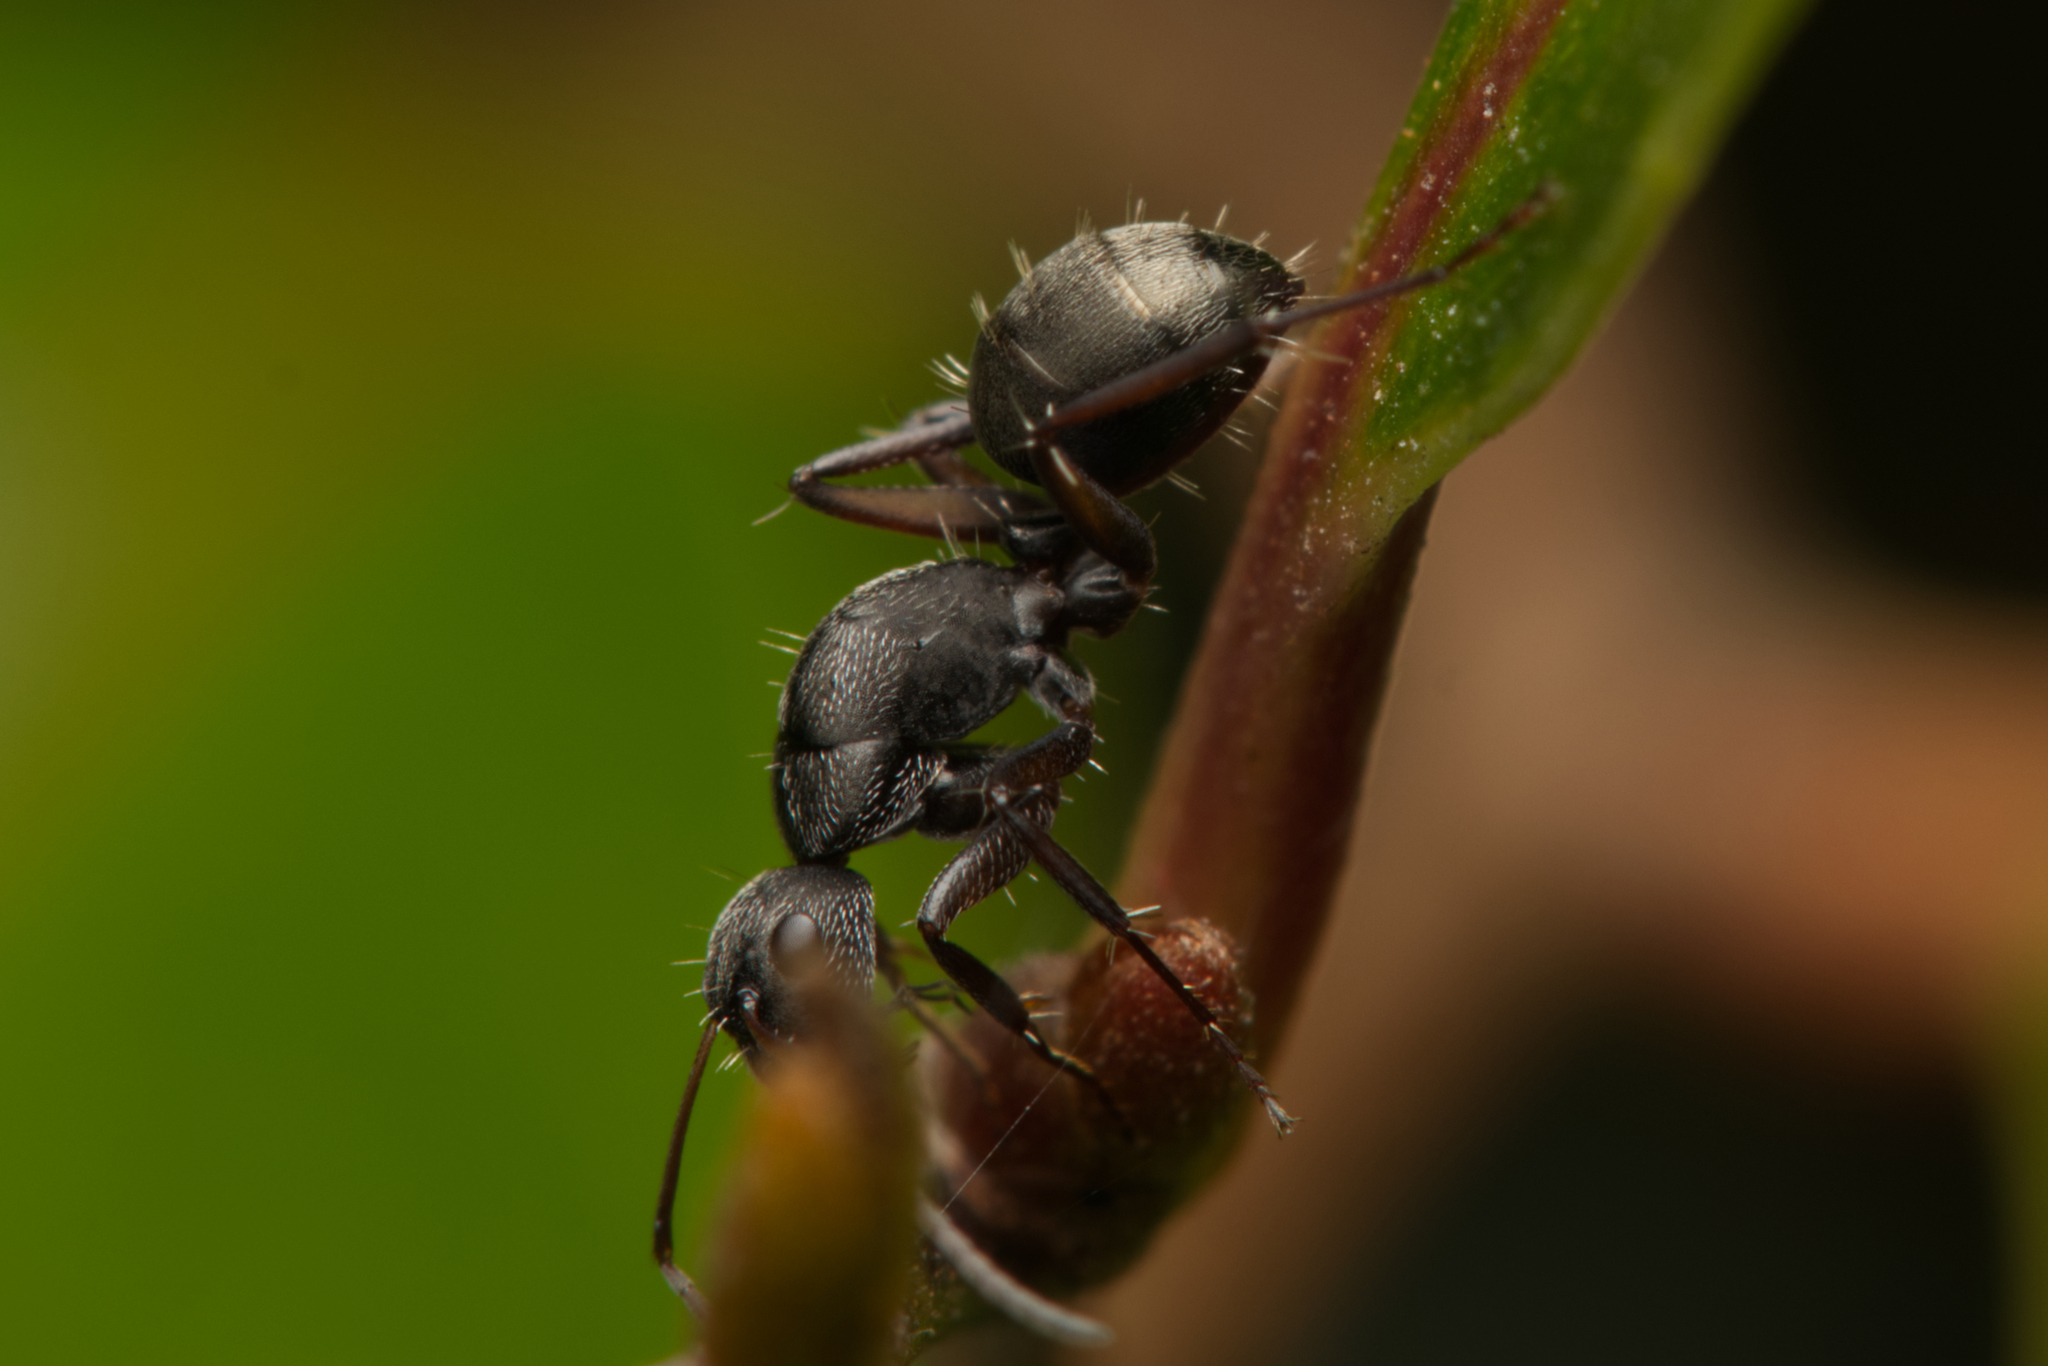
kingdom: Animalia
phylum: Arthropoda
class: Insecta
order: Hymenoptera
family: Formicidae
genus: Camponotus
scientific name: Camponotus esau
